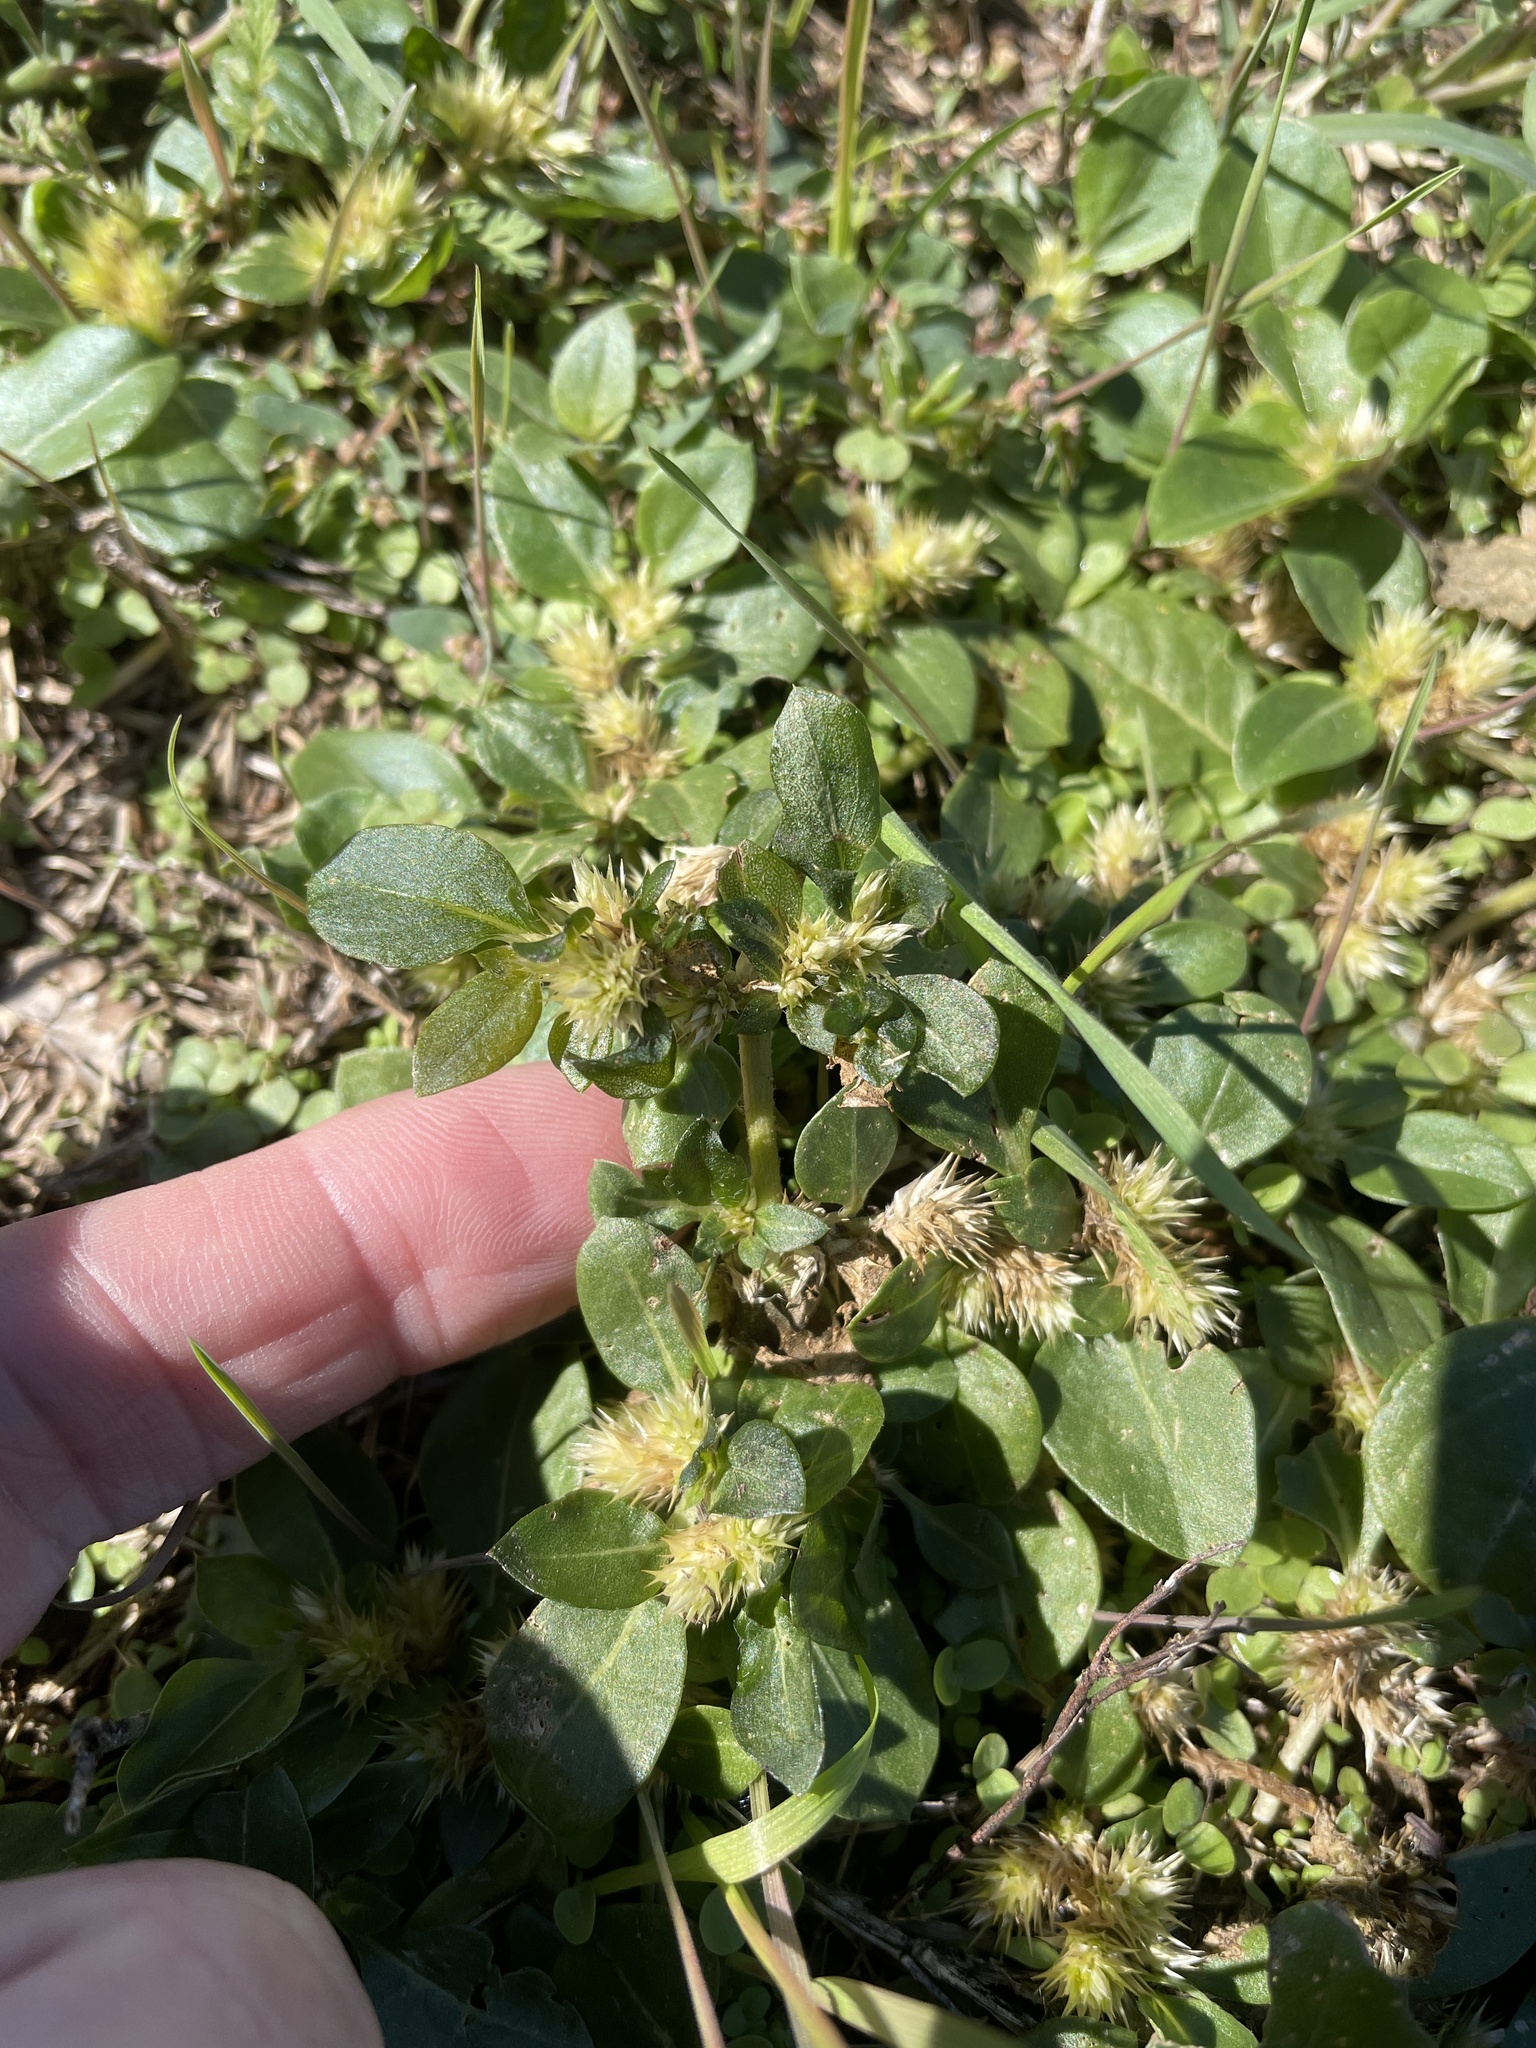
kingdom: Plantae
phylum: Tracheophyta
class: Magnoliopsida
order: Caryophyllales
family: Amaranthaceae
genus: Alternanthera
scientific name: Alternanthera pungens
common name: Khakiweed
